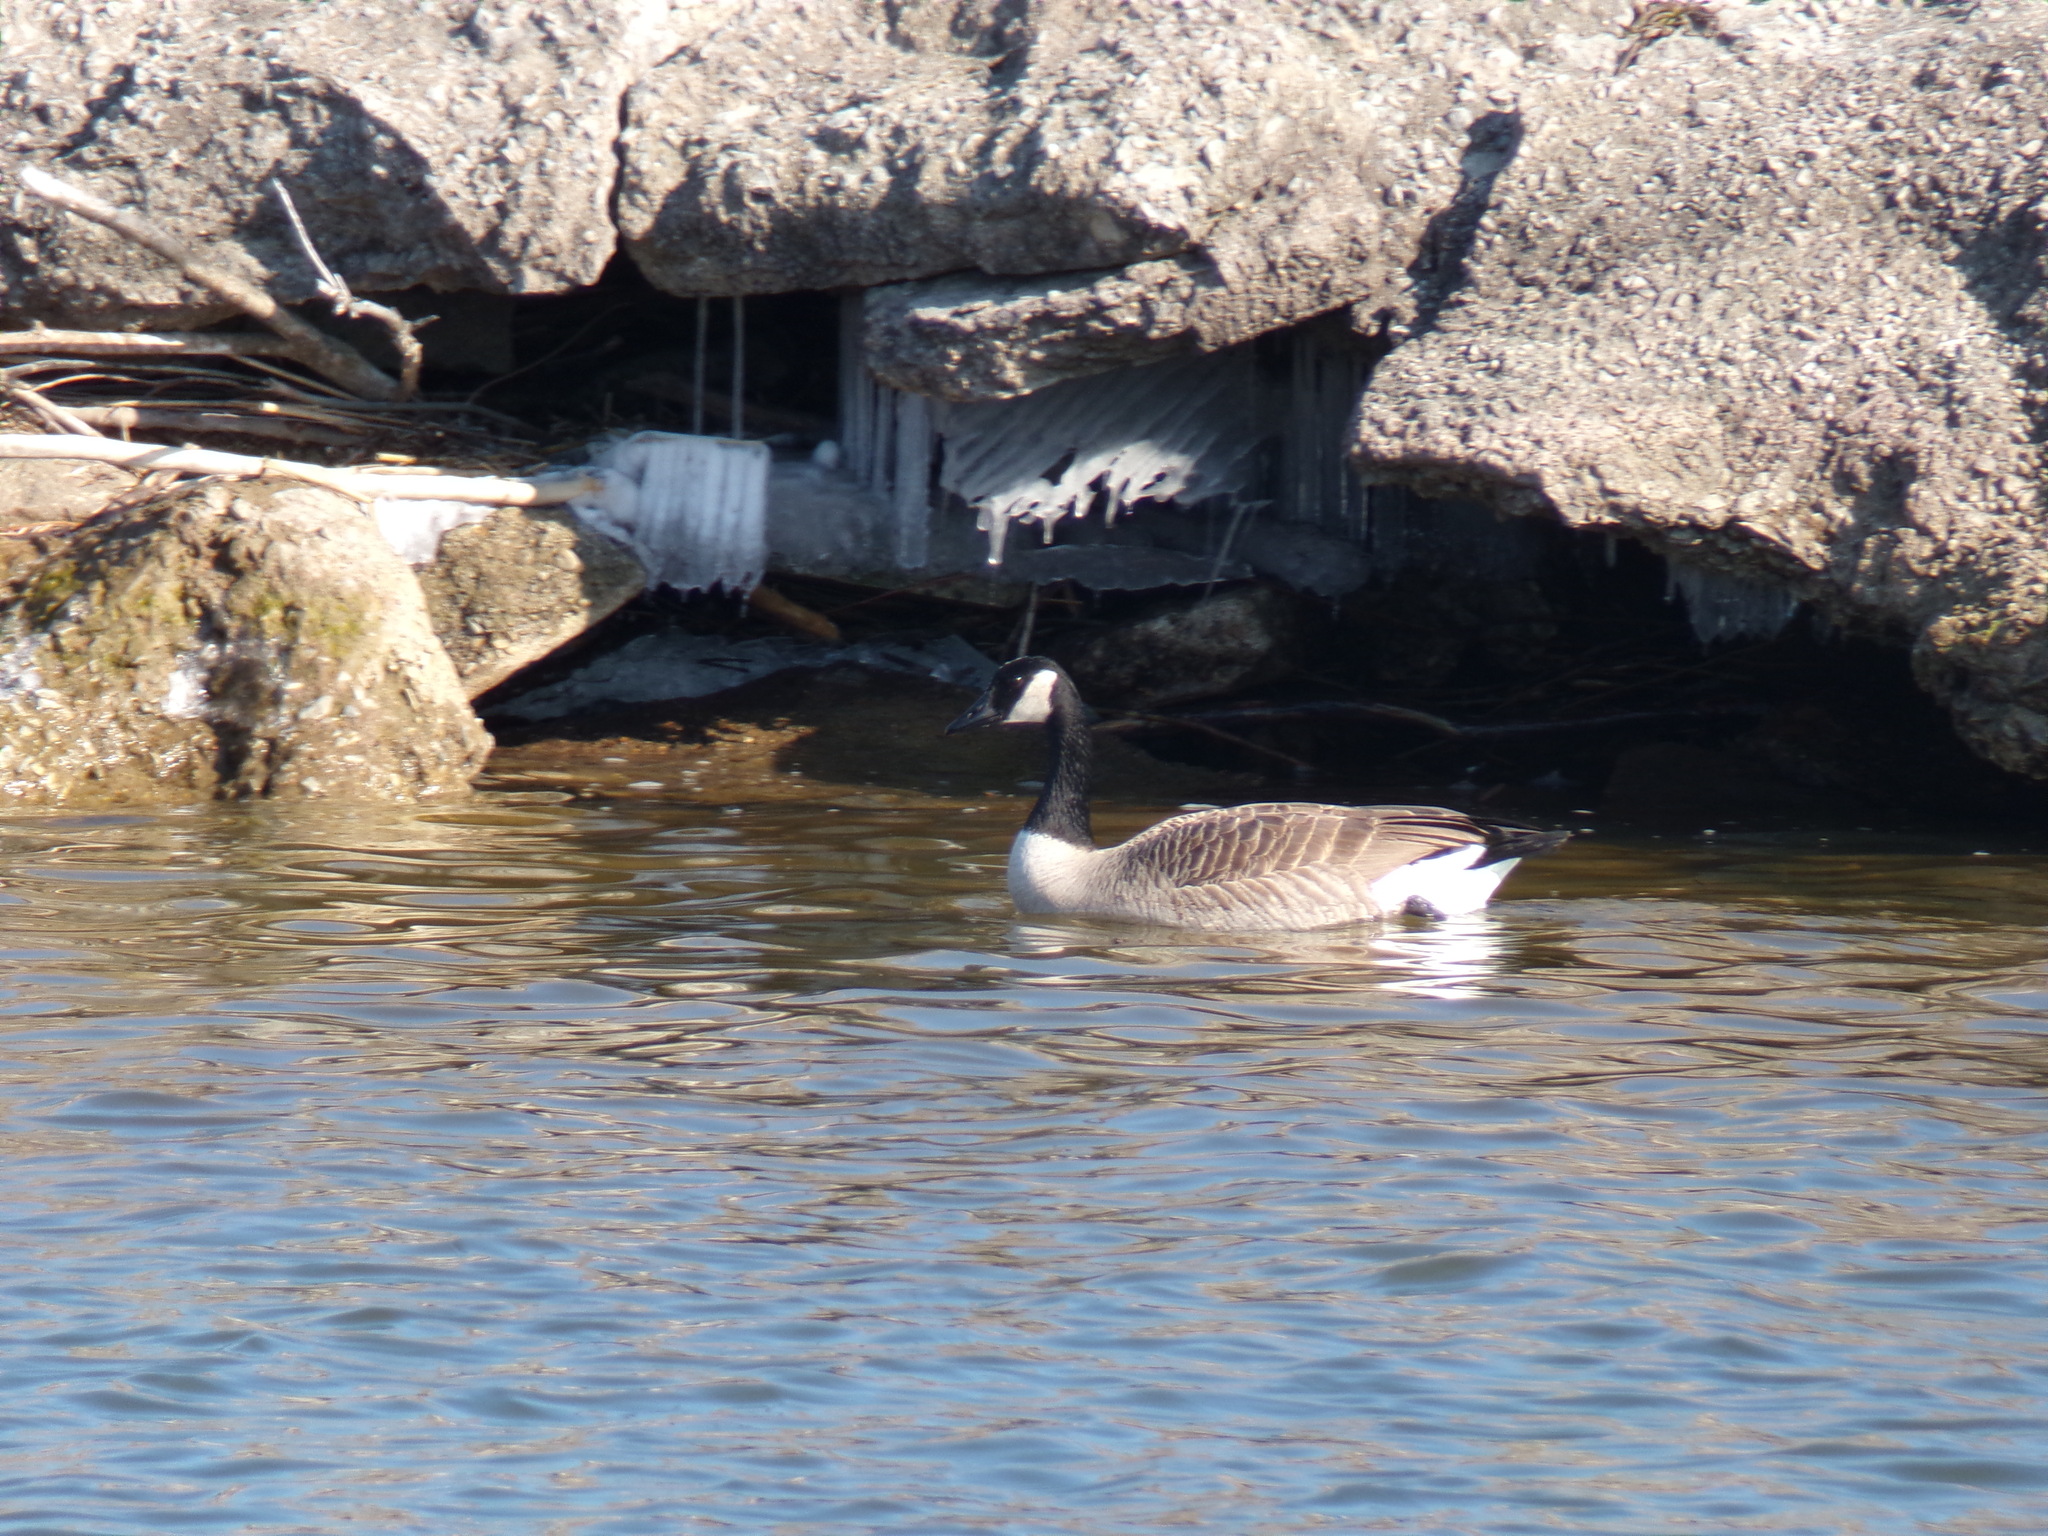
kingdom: Animalia
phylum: Chordata
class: Aves
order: Anseriformes
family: Anatidae
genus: Branta
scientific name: Branta canadensis
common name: Canada goose
